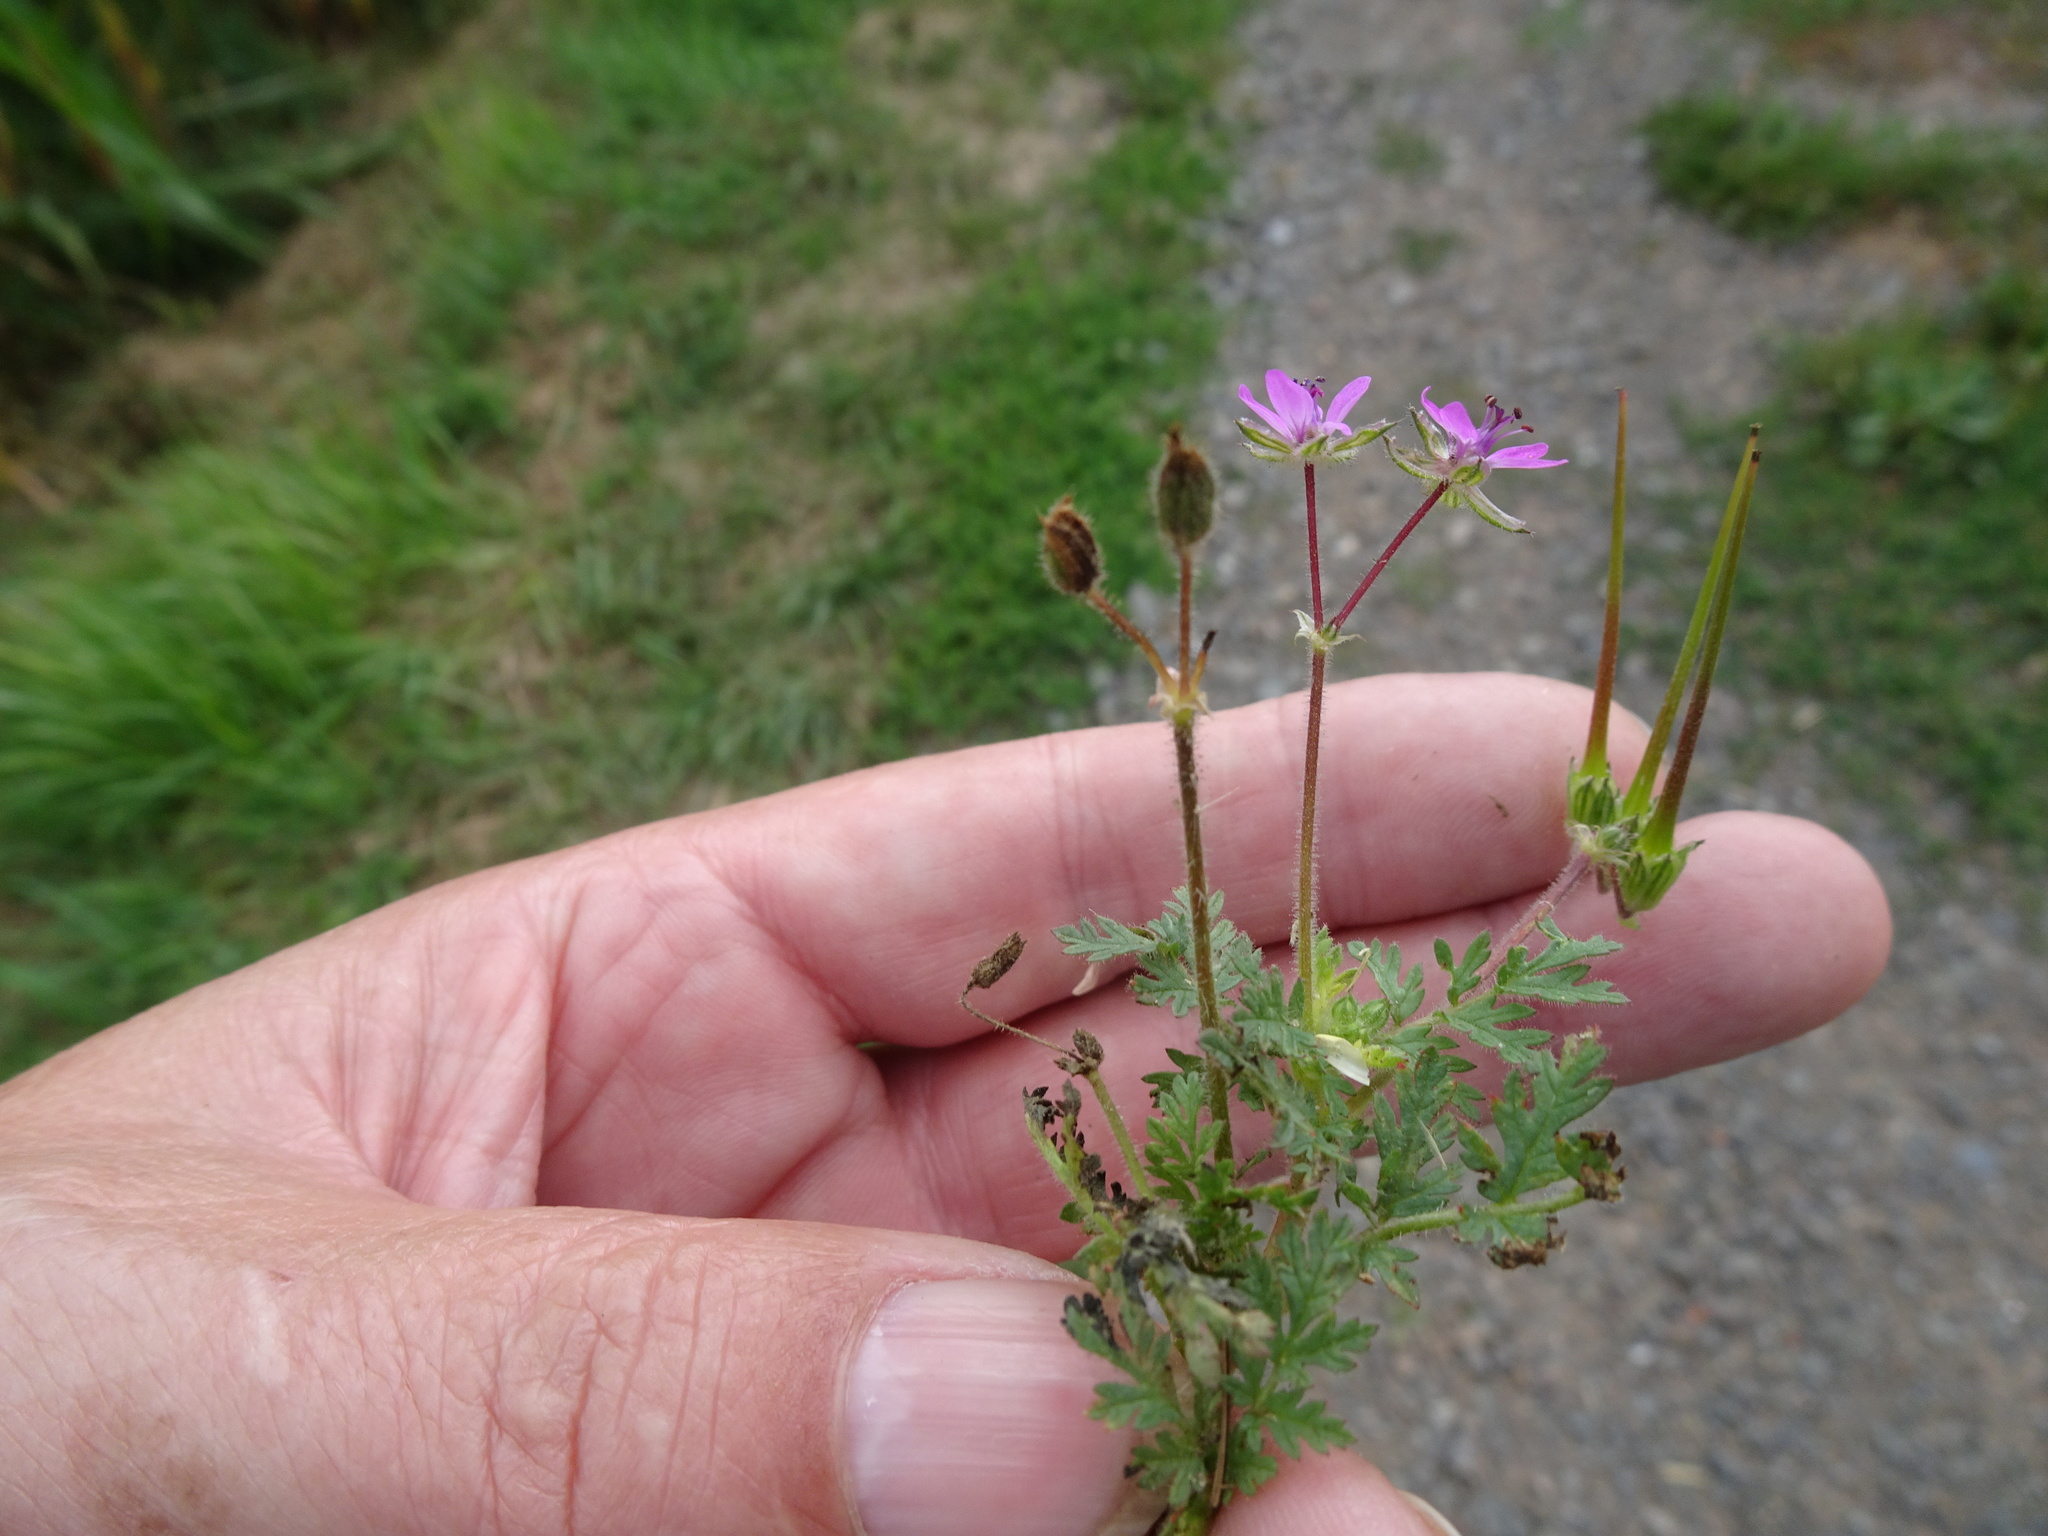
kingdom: Plantae
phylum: Tracheophyta
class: Magnoliopsida
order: Geraniales
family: Geraniaceae
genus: Erodium
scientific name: Erodium cicutarium
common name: Common stork's-bill
